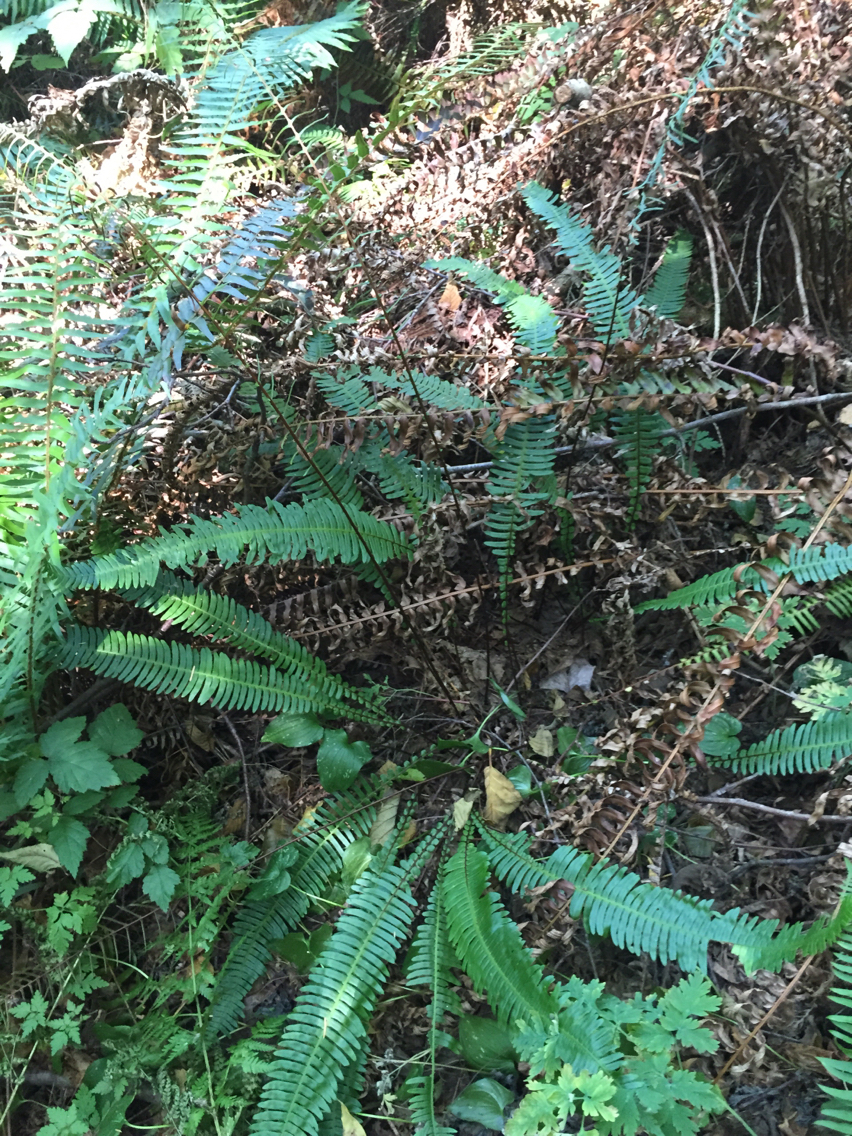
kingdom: Plantae
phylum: Tracheophyta
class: Polypodiopsida
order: Polypodiales
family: Blechnaceae
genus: Struthiopteris
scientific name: Struthiopteris spicant
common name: Deer fern
